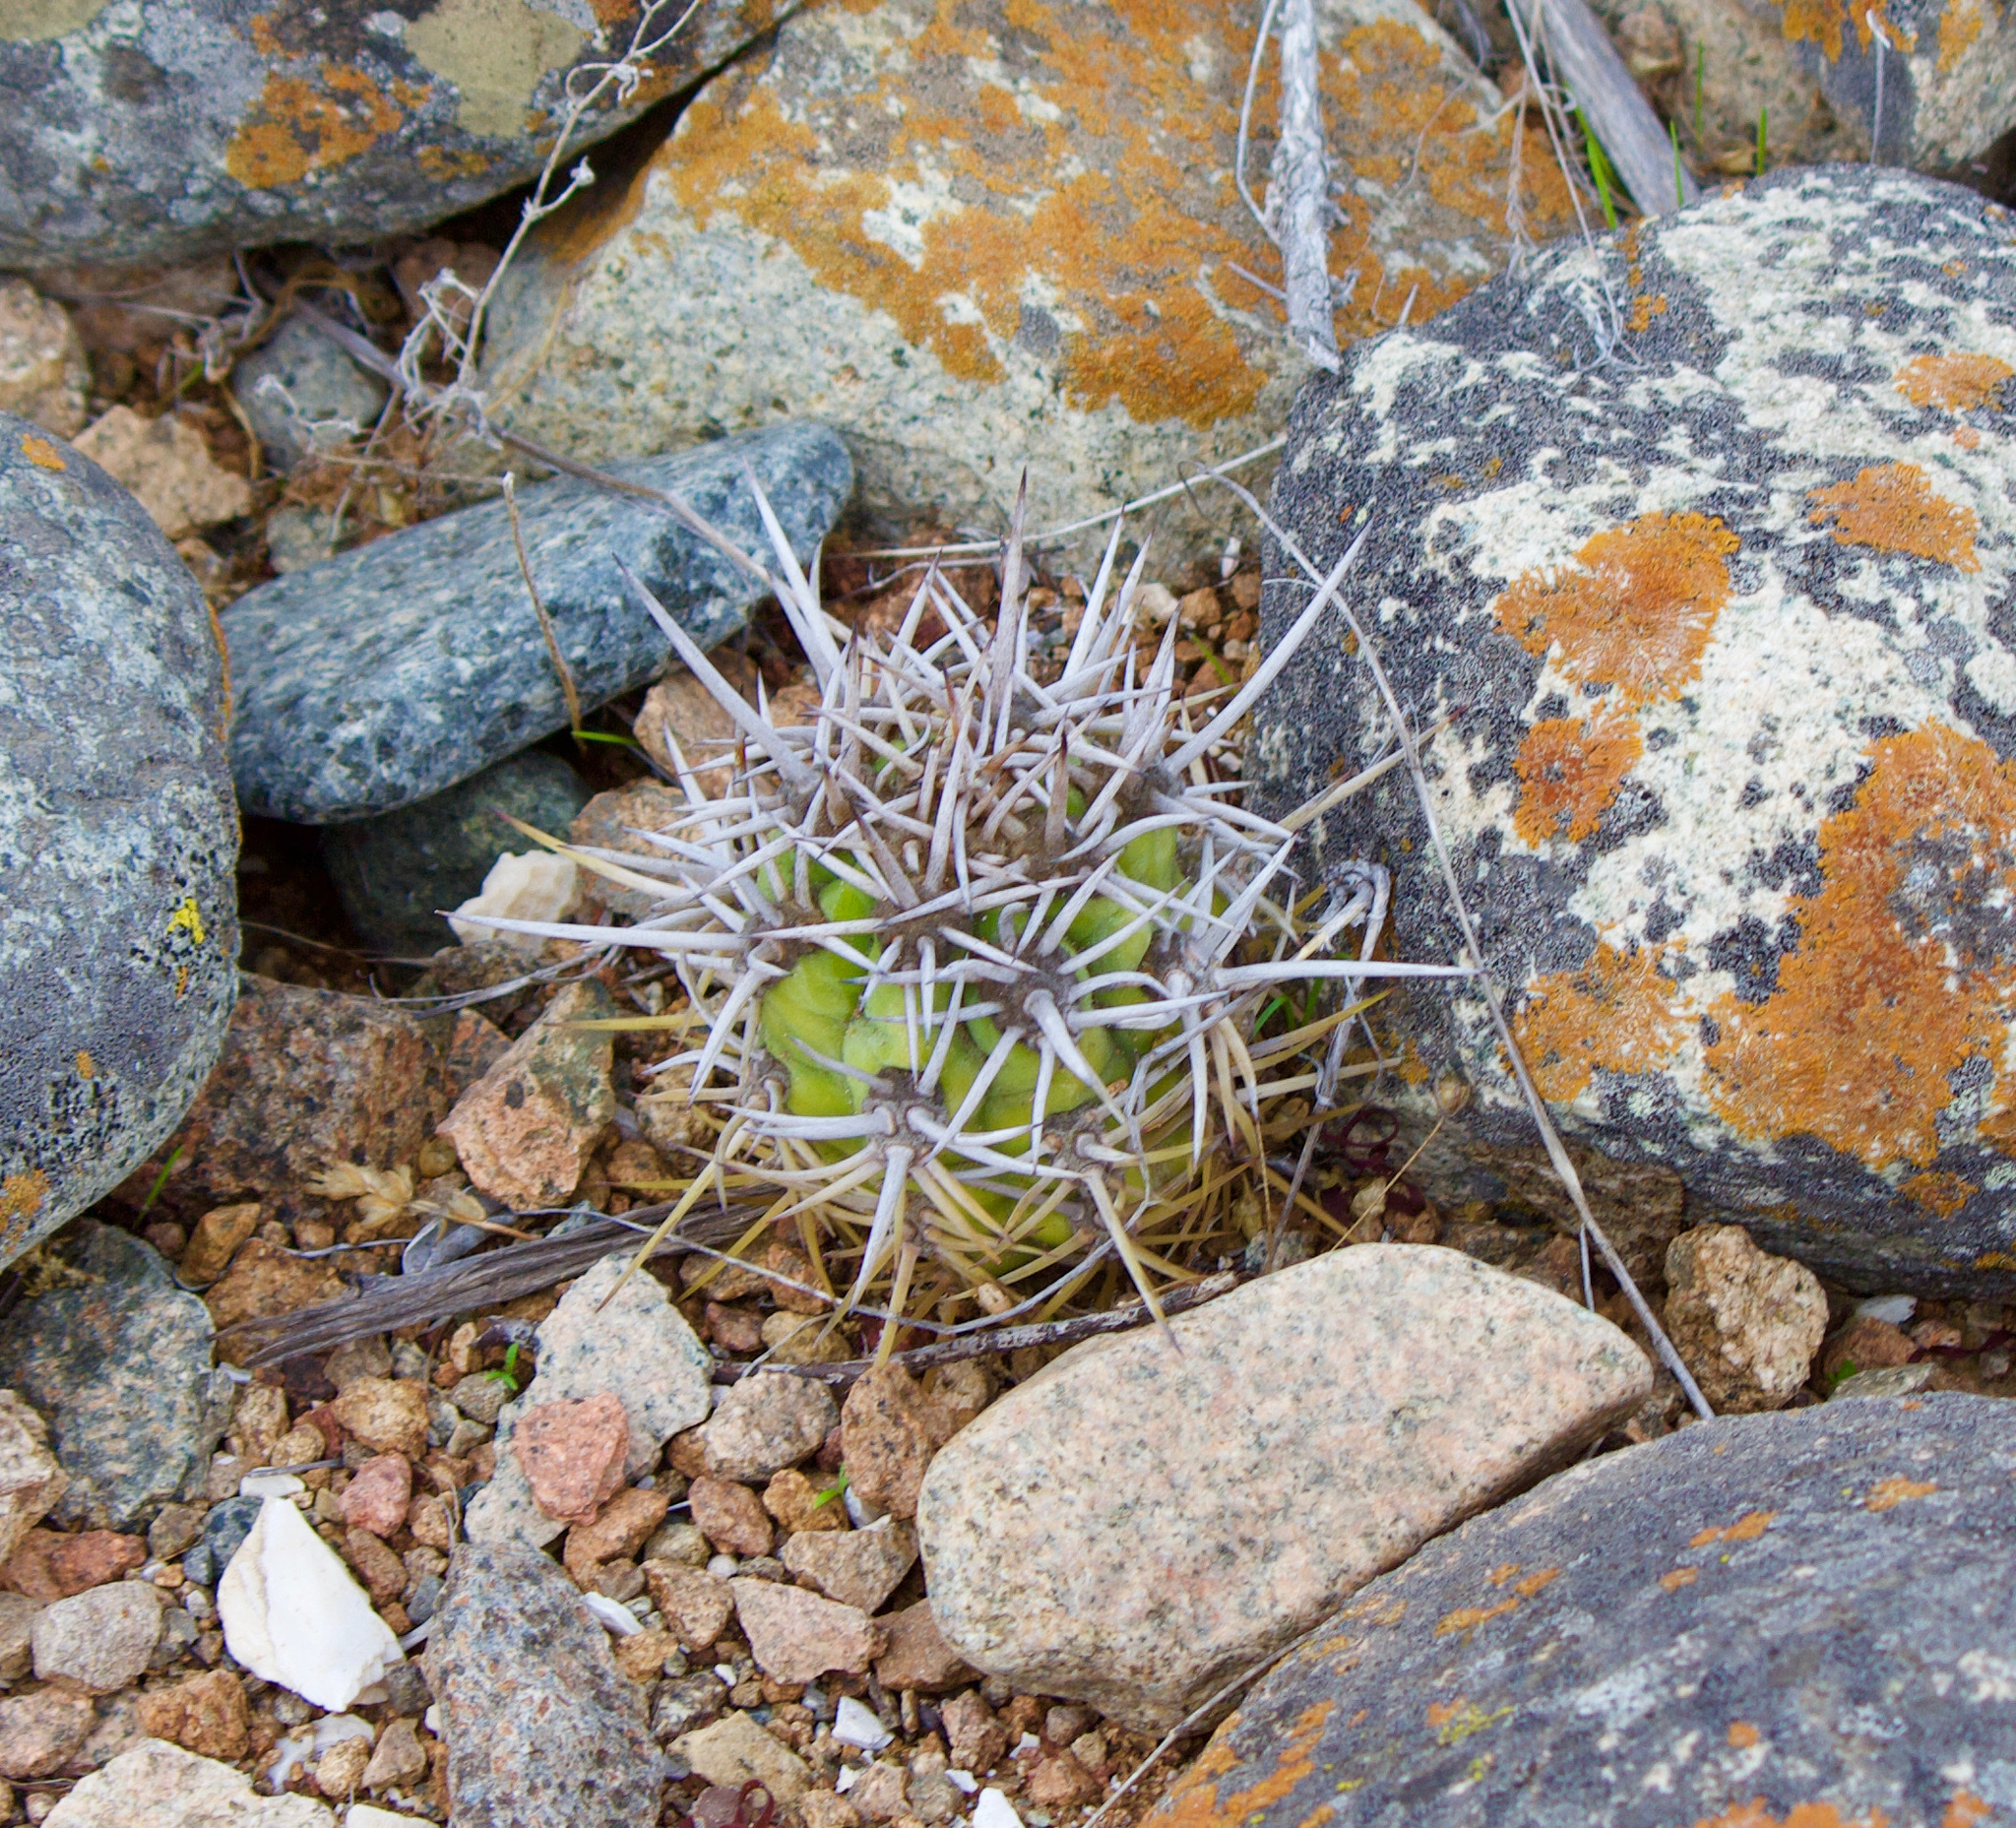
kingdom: Plantae
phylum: Tracheophyta
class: Magnoliopsida
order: Caryophyllales
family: Cactaceae
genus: Leucostele
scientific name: Leucostele chiloensis
